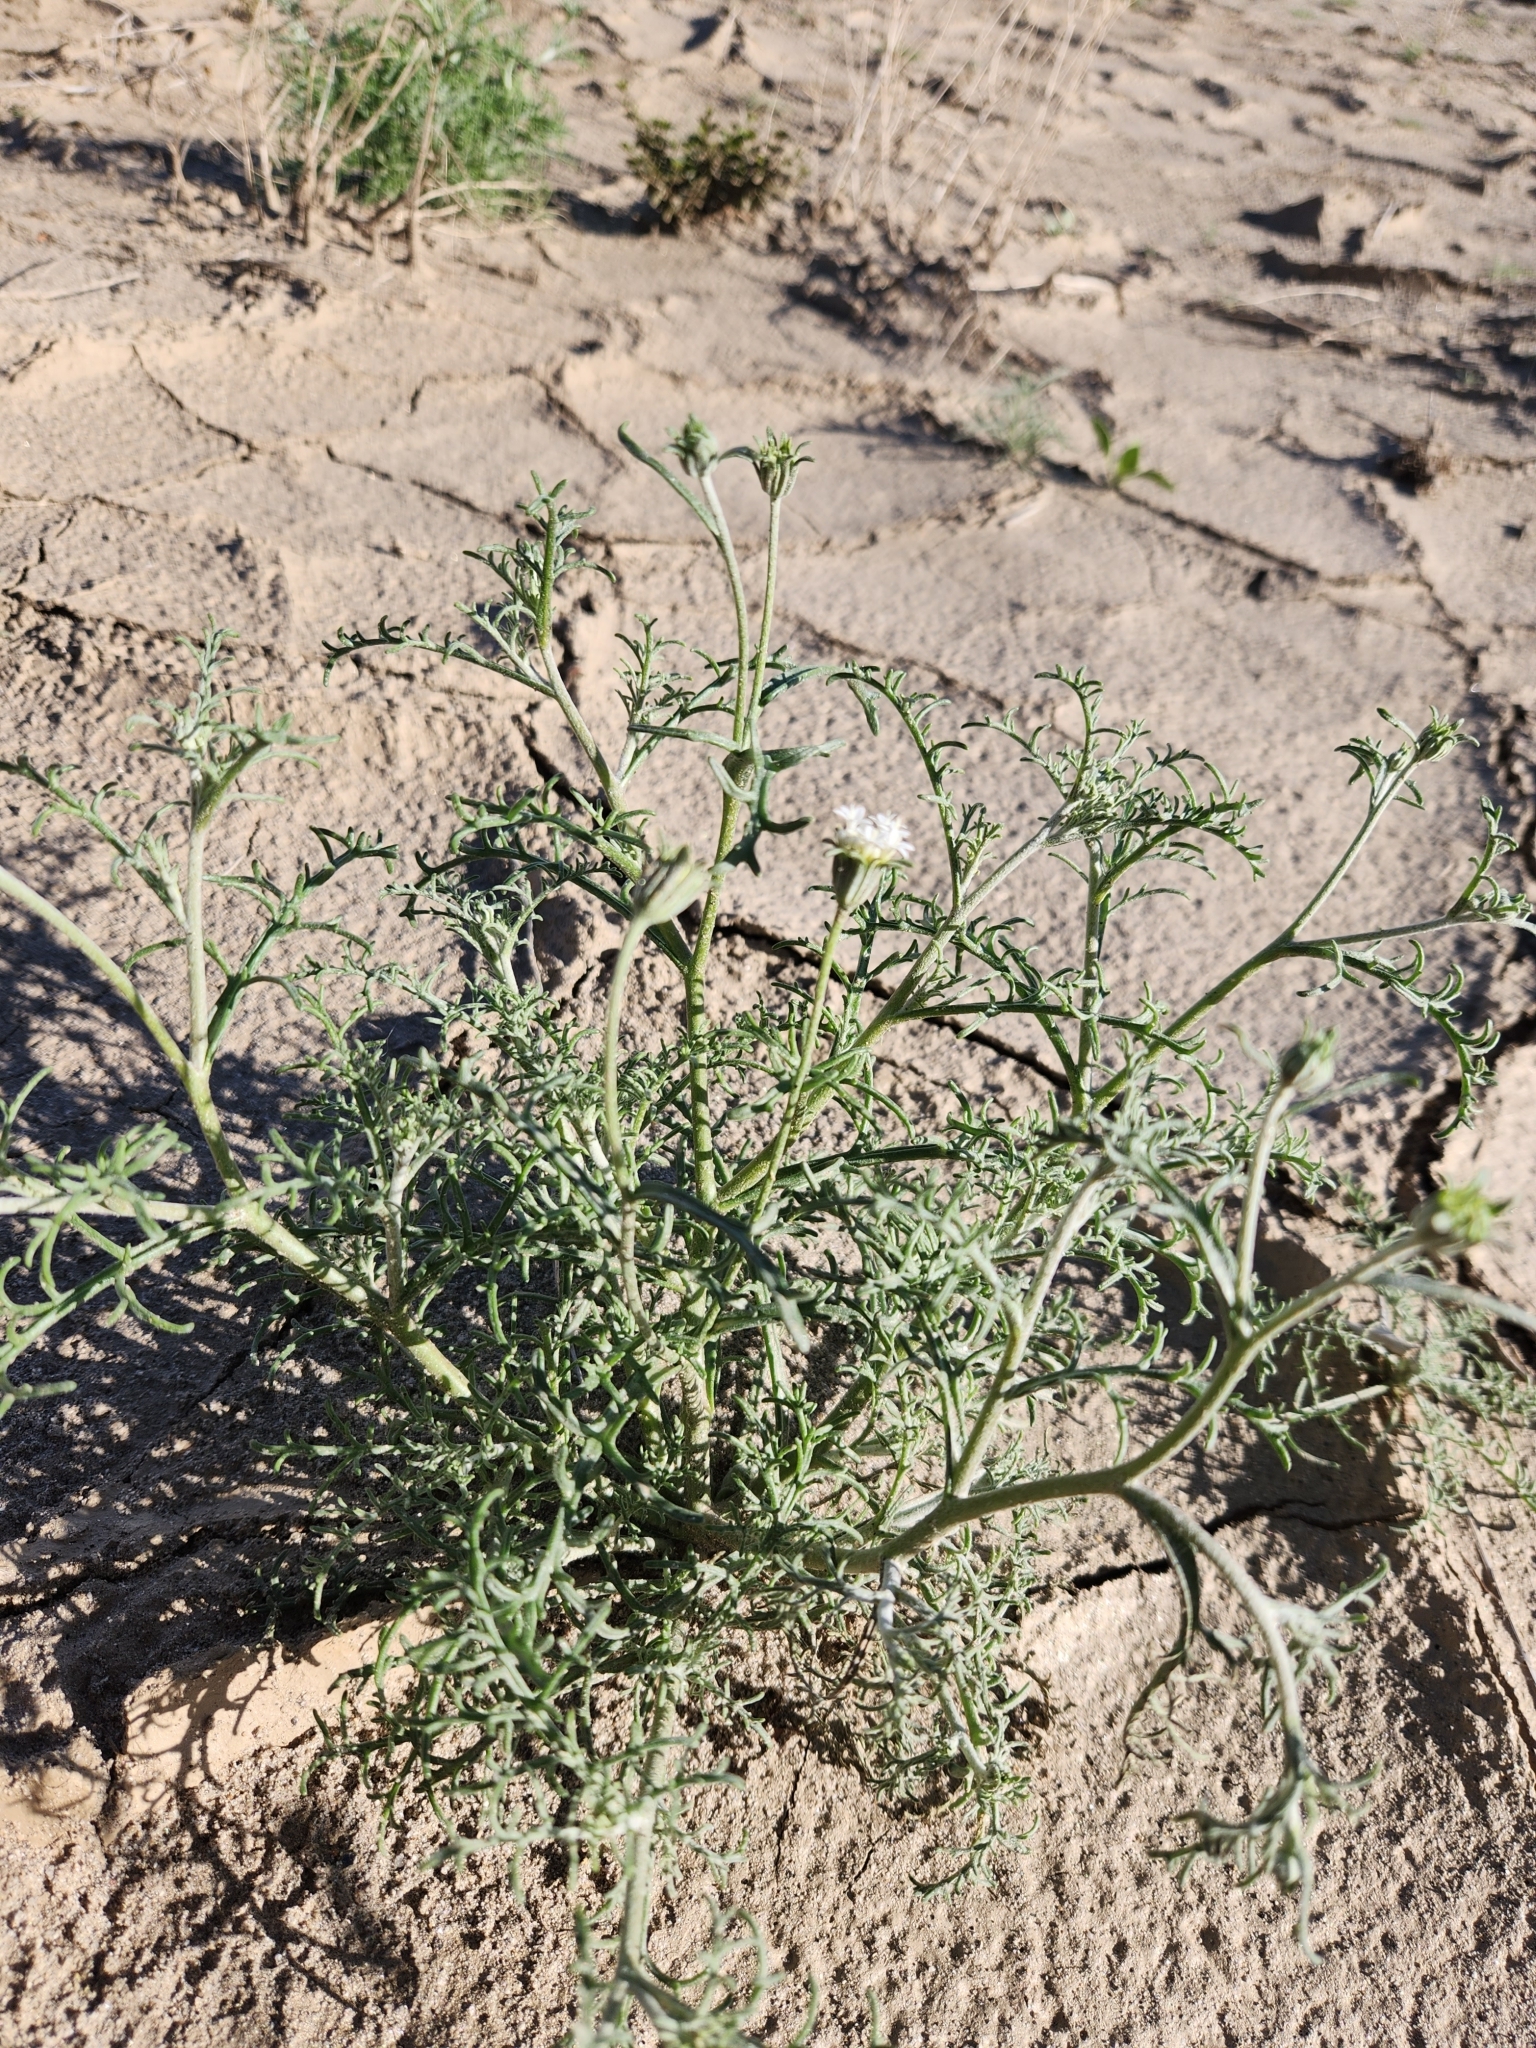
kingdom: Plantae
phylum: Tracheophyta
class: Magnoliopsida
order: Asterales
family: Asteraceae
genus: Chaenactis
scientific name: Chaenactis stevioides
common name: Desert pincushion
